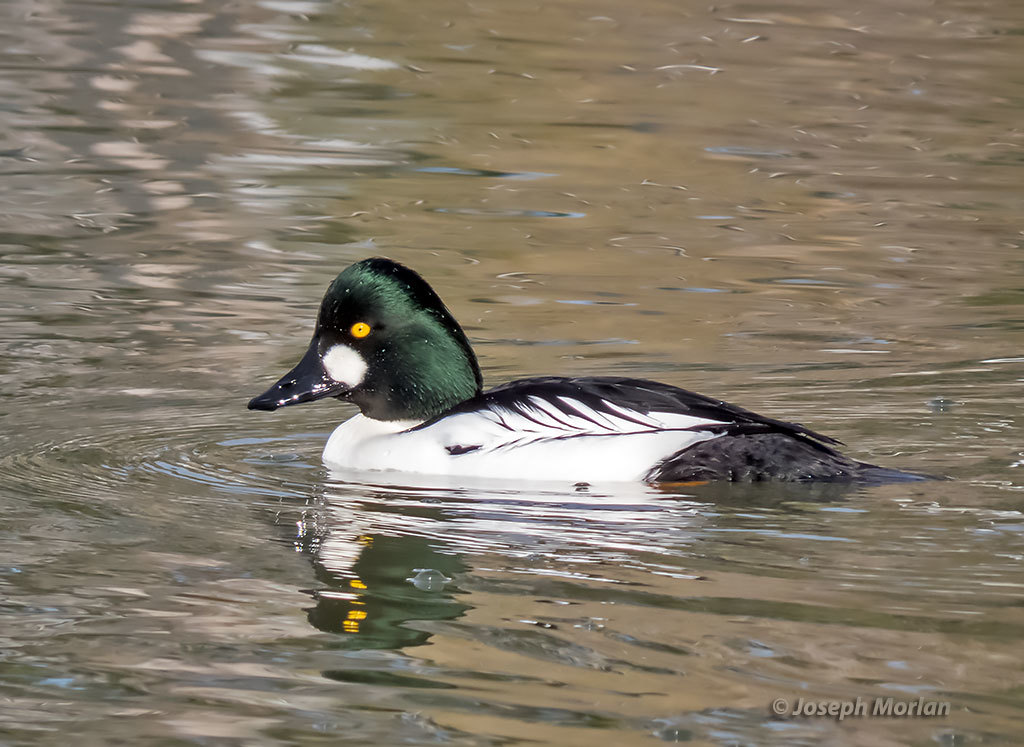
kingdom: Animalia
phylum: Chordata
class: Aves
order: Anseriformes
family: Anatidae
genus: Bucephala
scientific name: Bucephala clangula
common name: Common goldeneye
